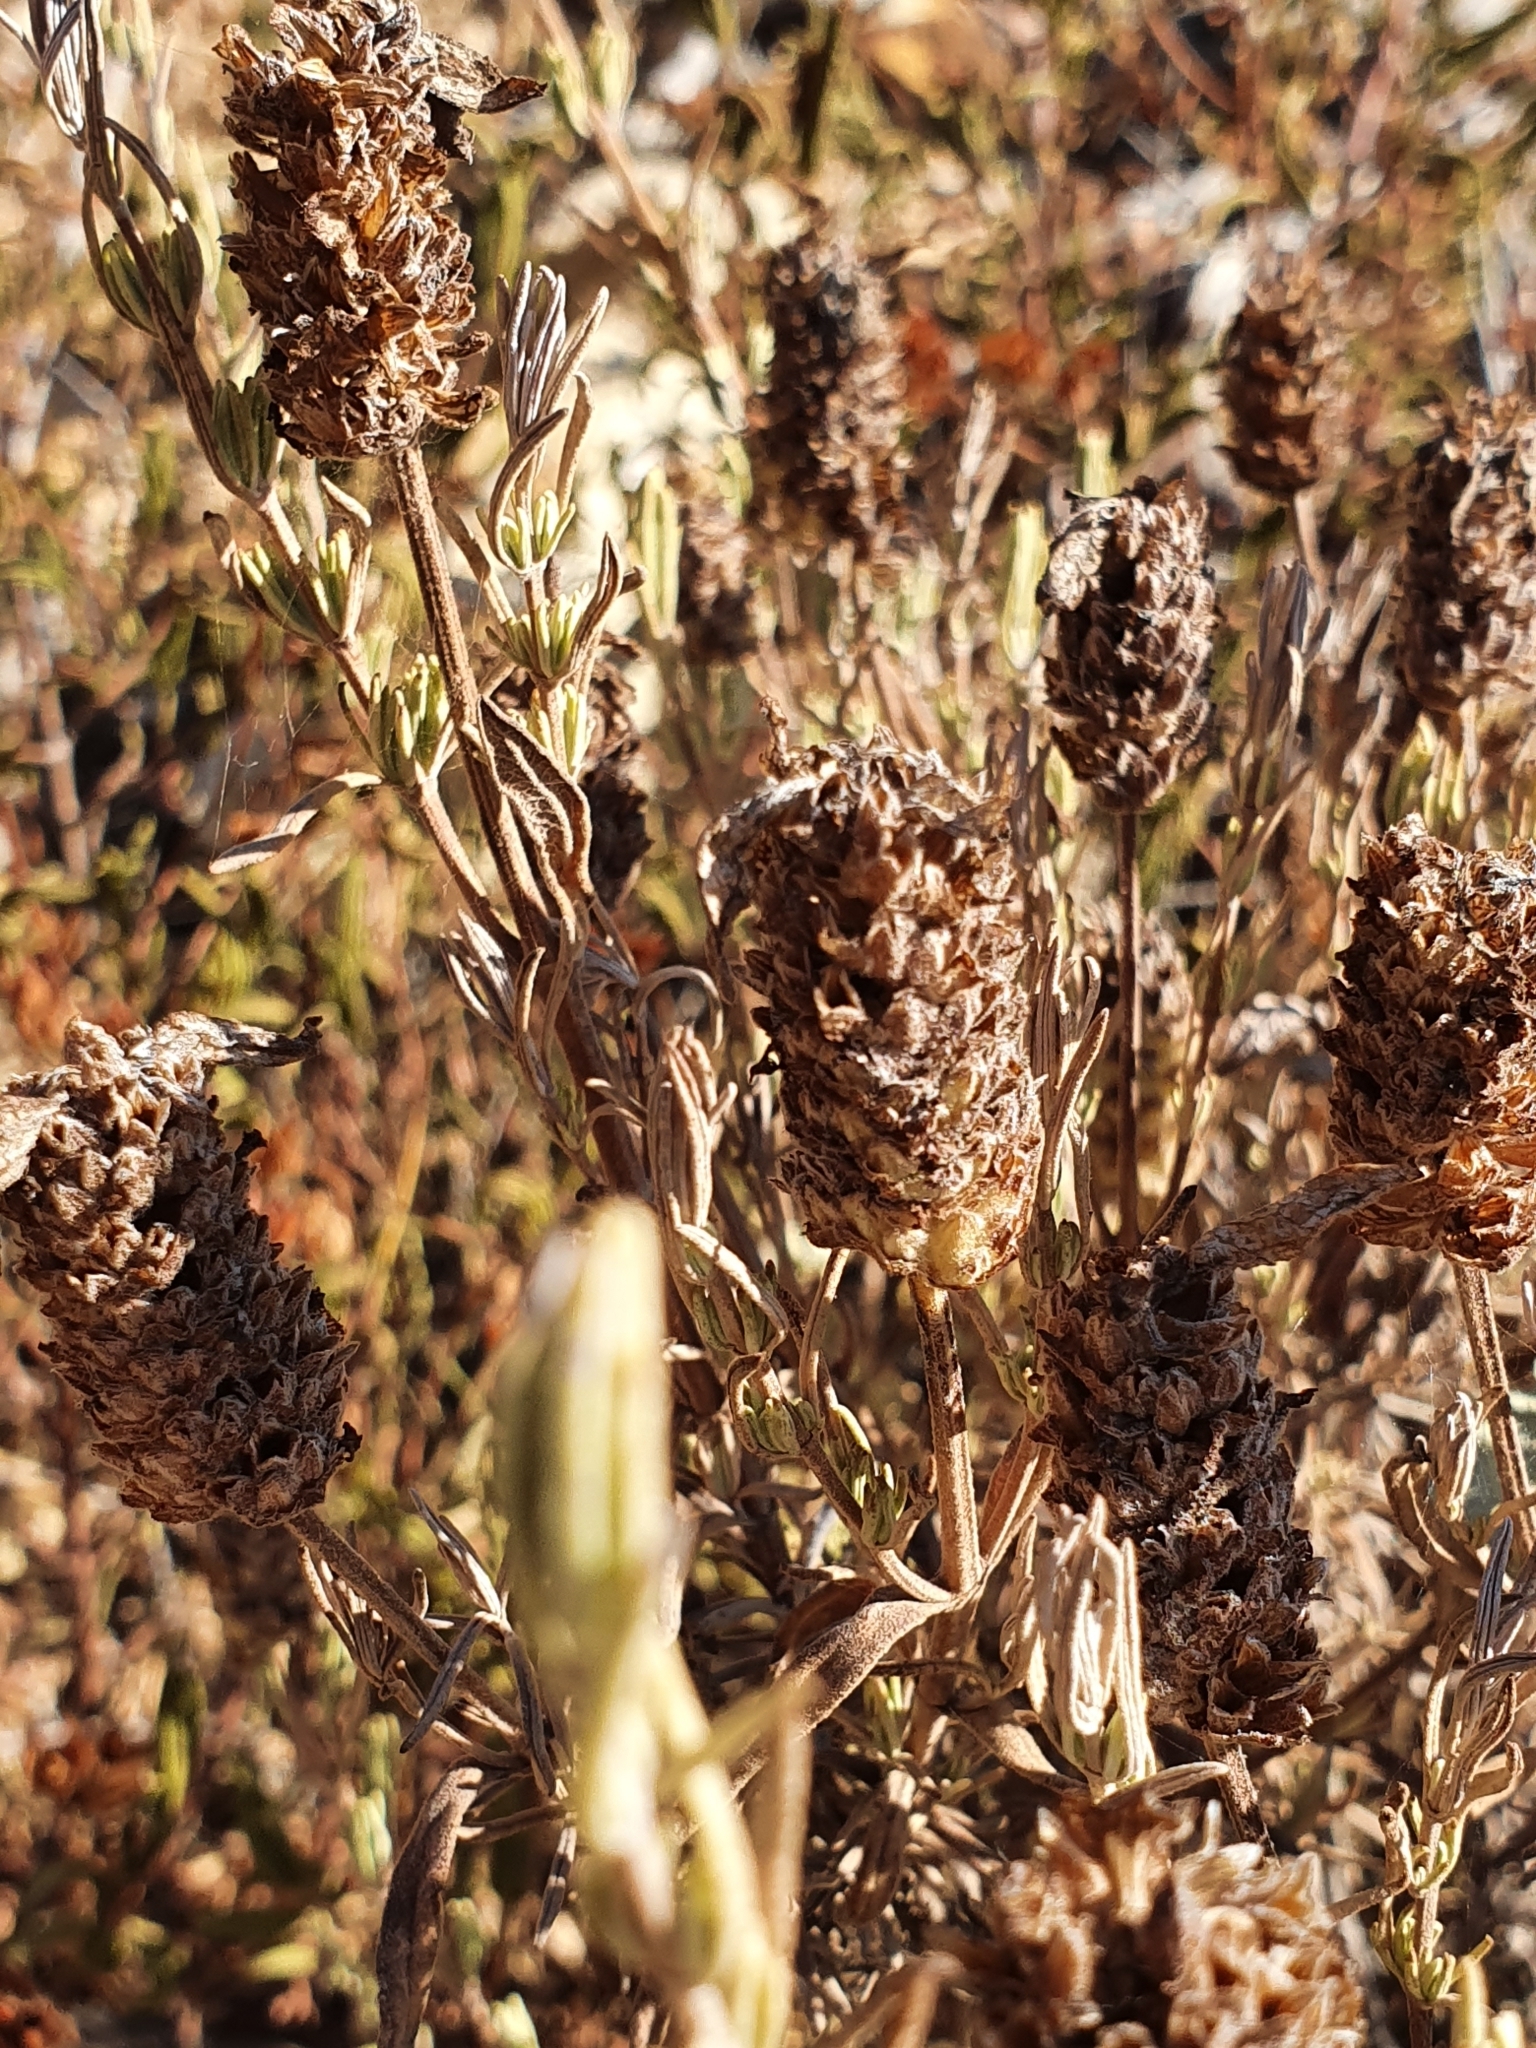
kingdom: Plantae
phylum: Tracheophyta
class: Magnoliopsida
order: Lamiales
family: Lamiaceae
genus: Lavandula
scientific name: Lavandula stoechas
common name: French lavender
